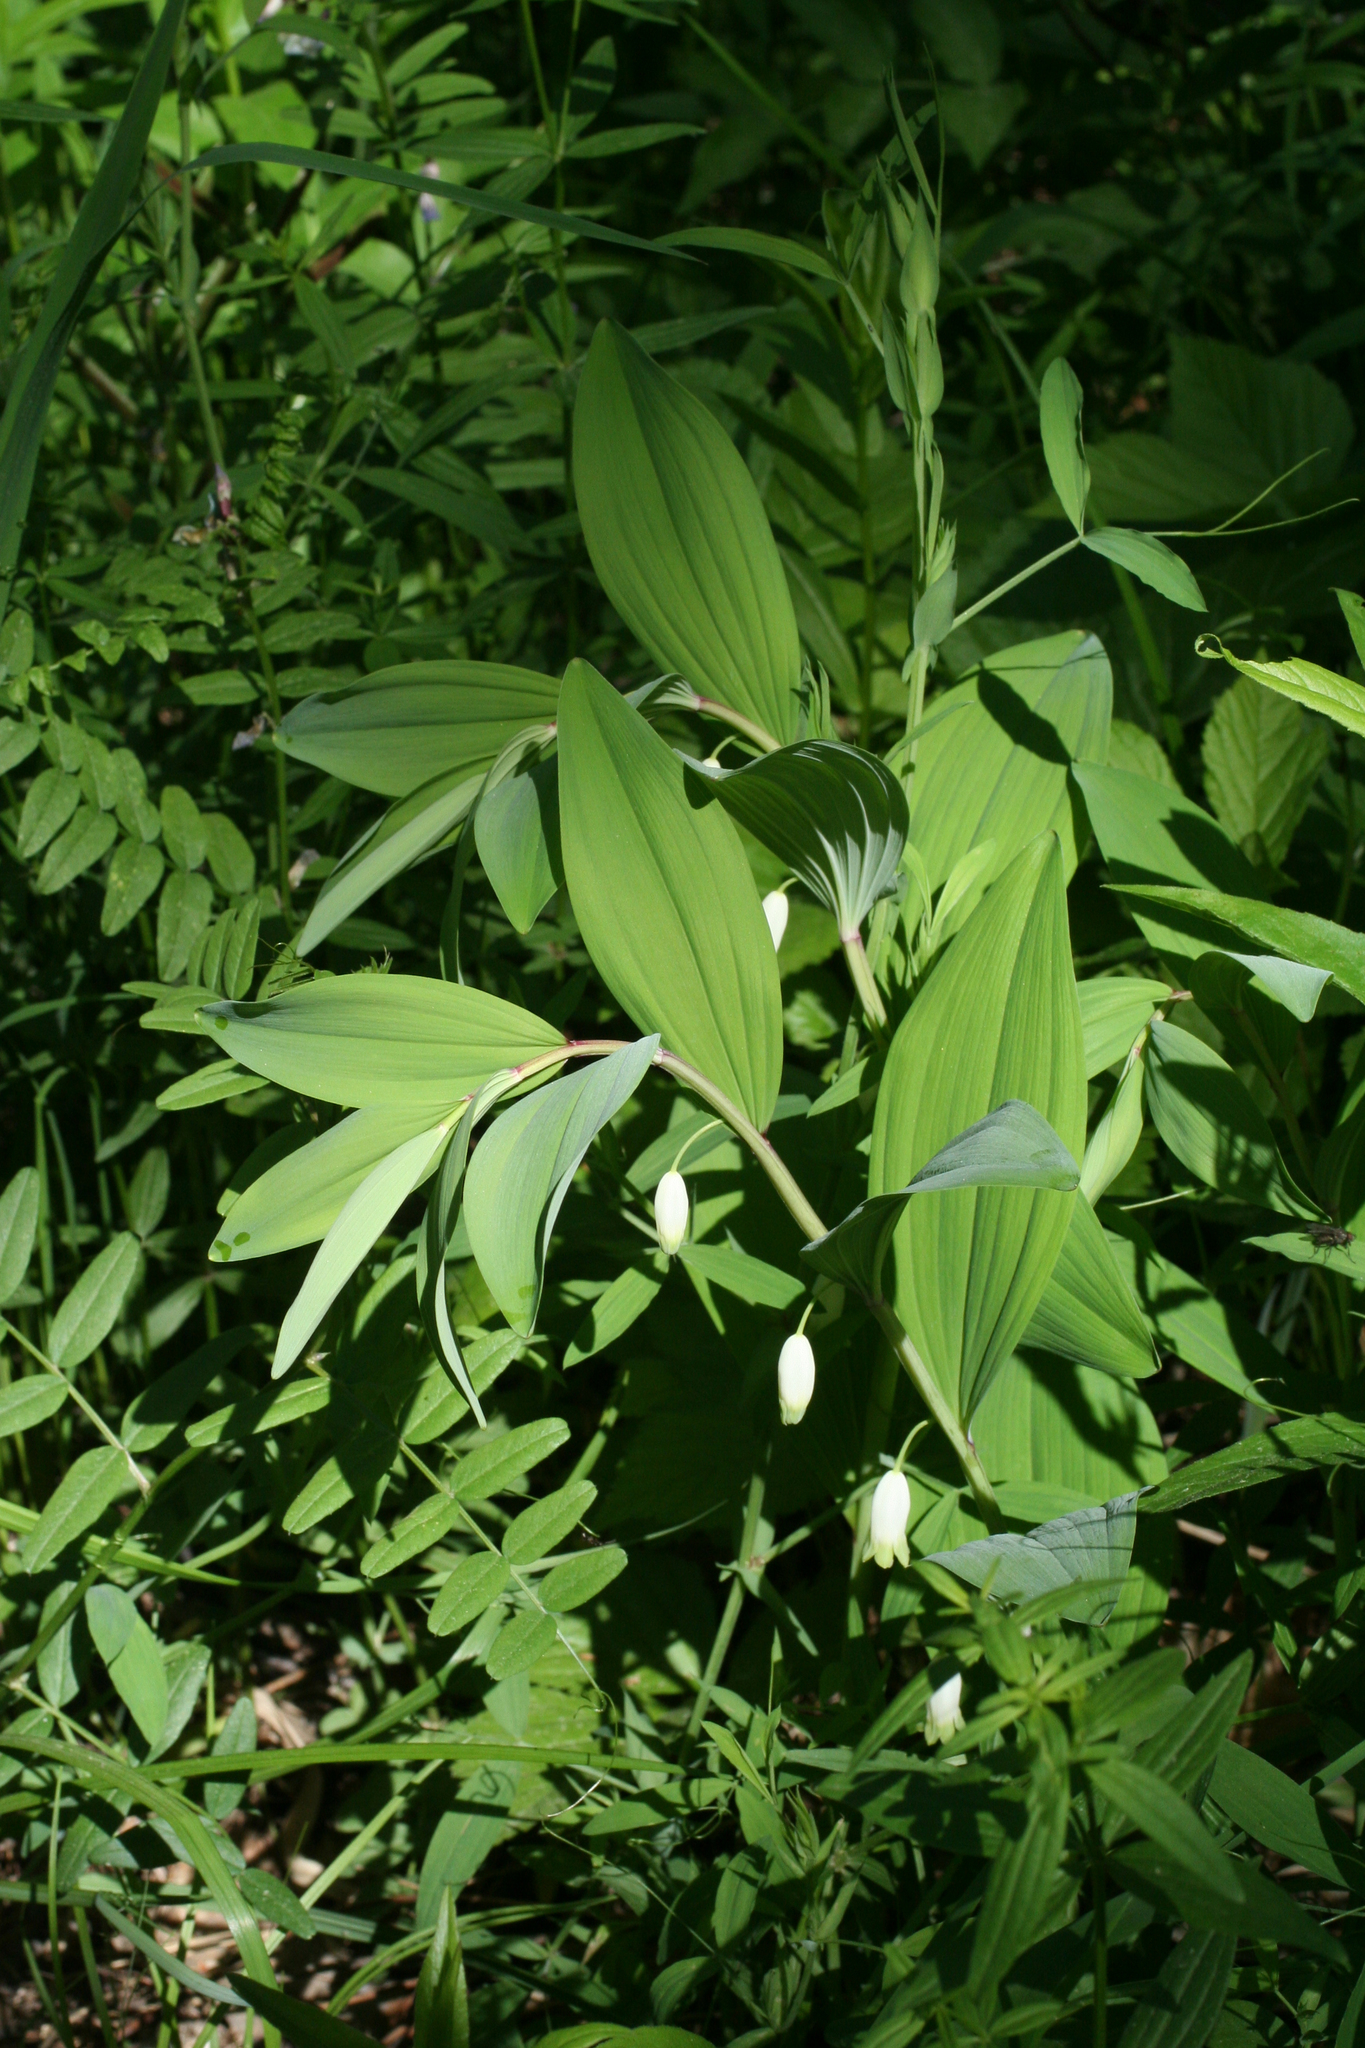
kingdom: Plantae
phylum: Tracheophyta
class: Liliopsida
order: Asparagales
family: Asparagaceae
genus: Polygonatum
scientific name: Polygonatum odoratum
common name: Angular solomon's-seal
